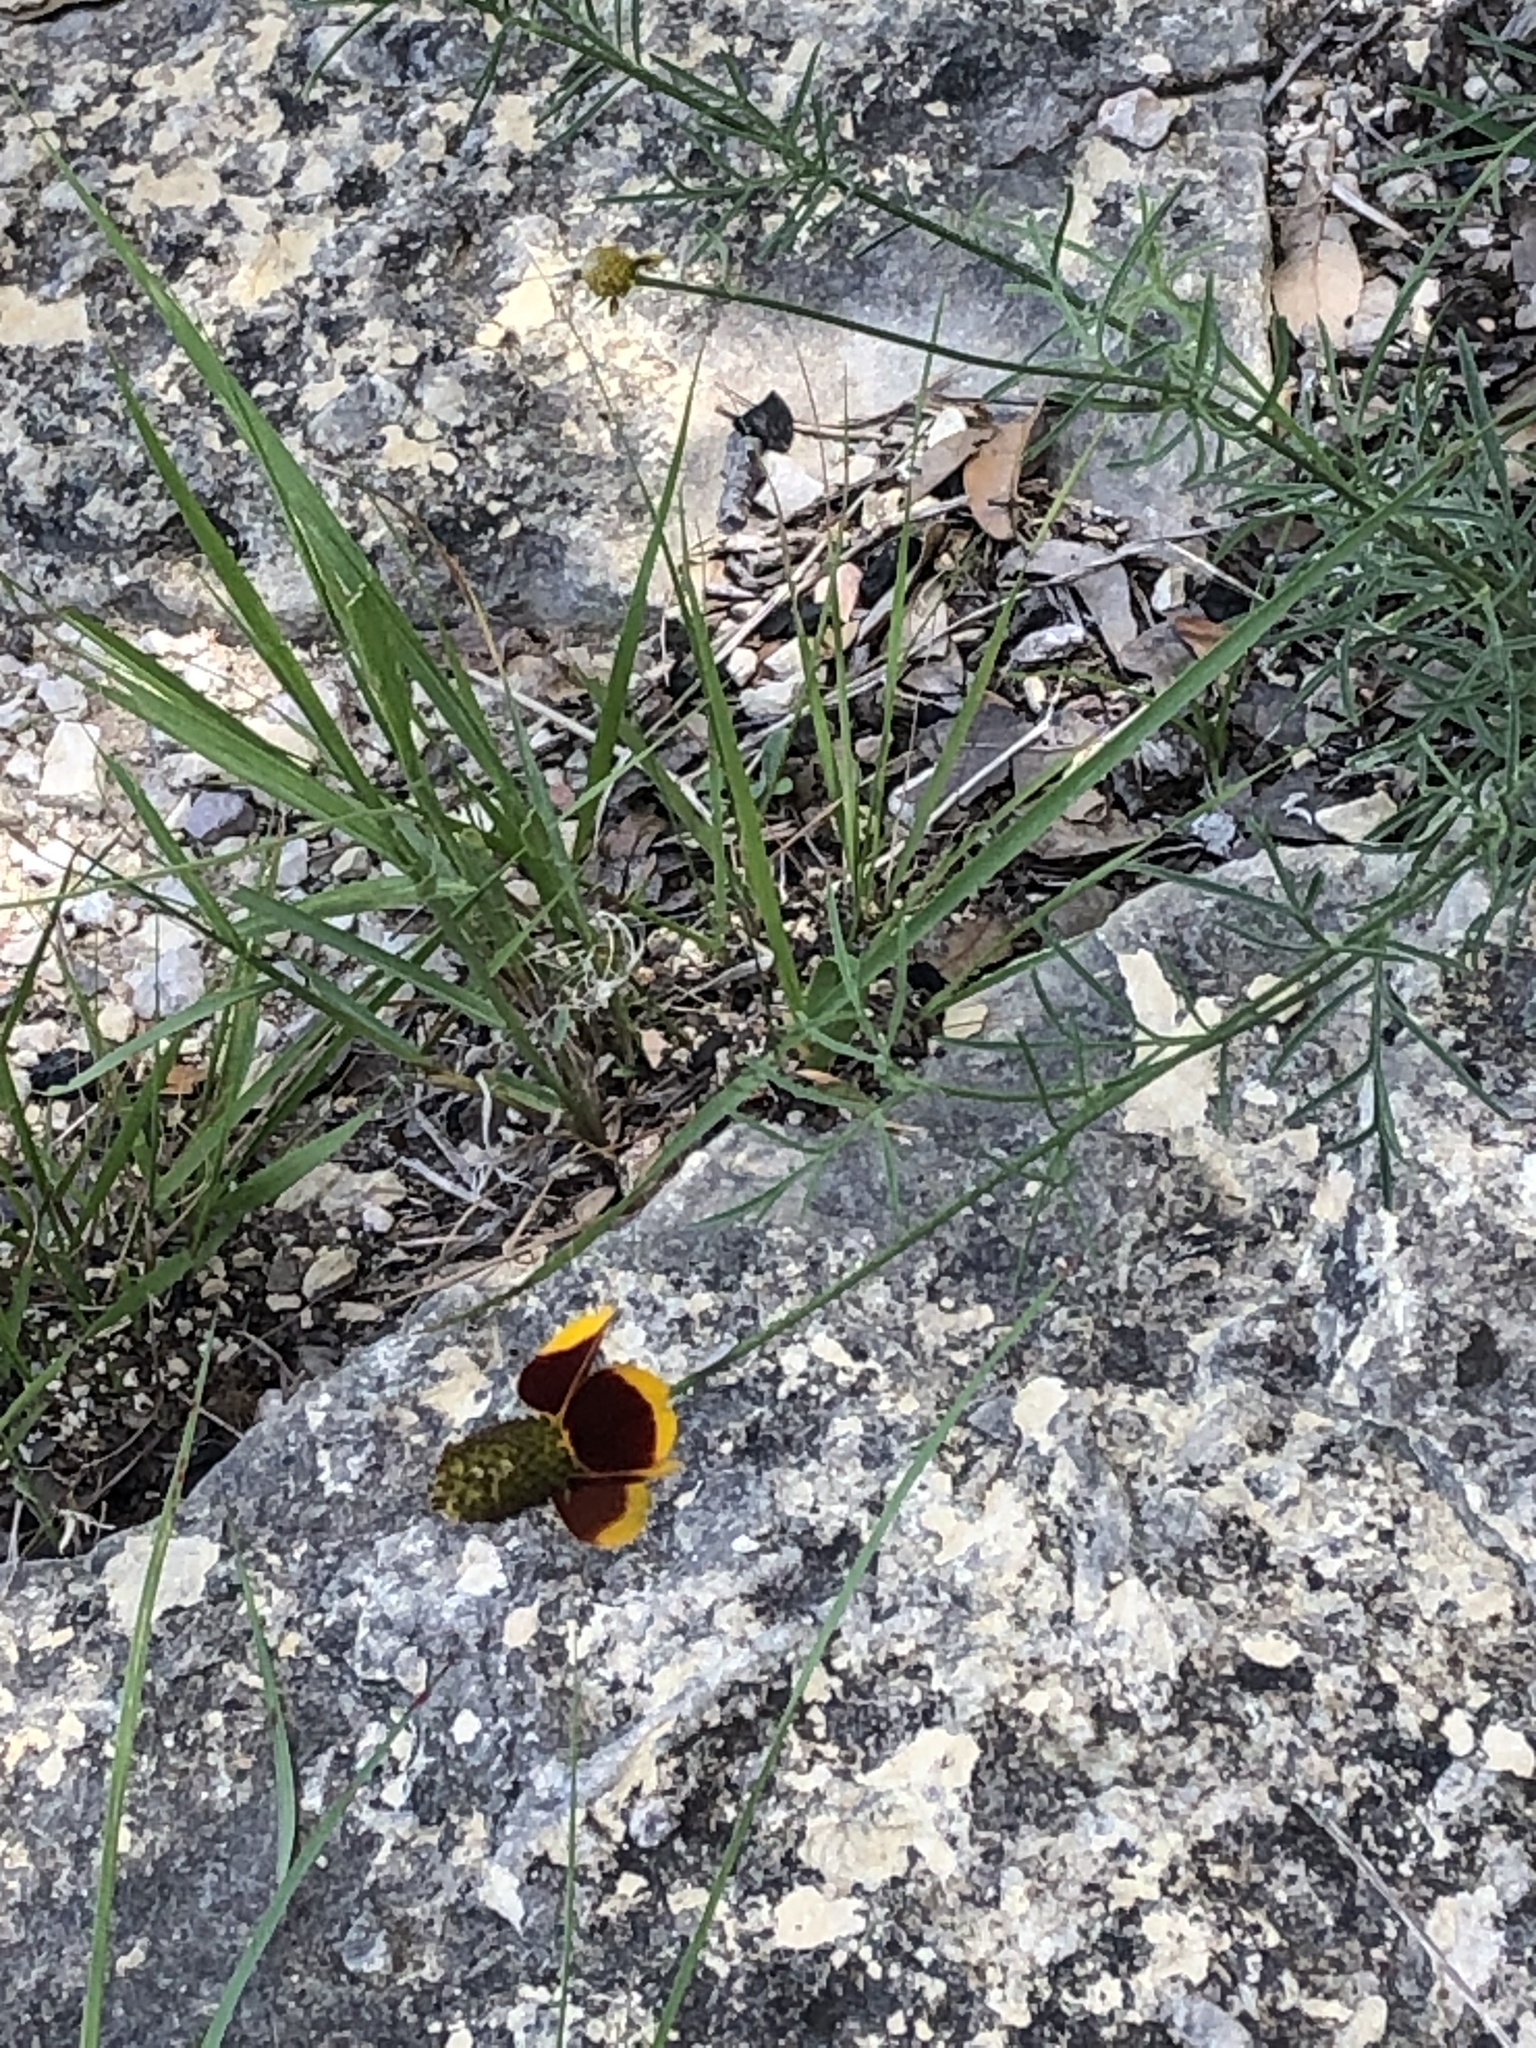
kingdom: Plantae
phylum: Tracheophyta
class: Magnoliopsida
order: Asterales
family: Asteraceae
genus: Ratibida
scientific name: Ratibida columnifera
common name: Prairie coneflower
